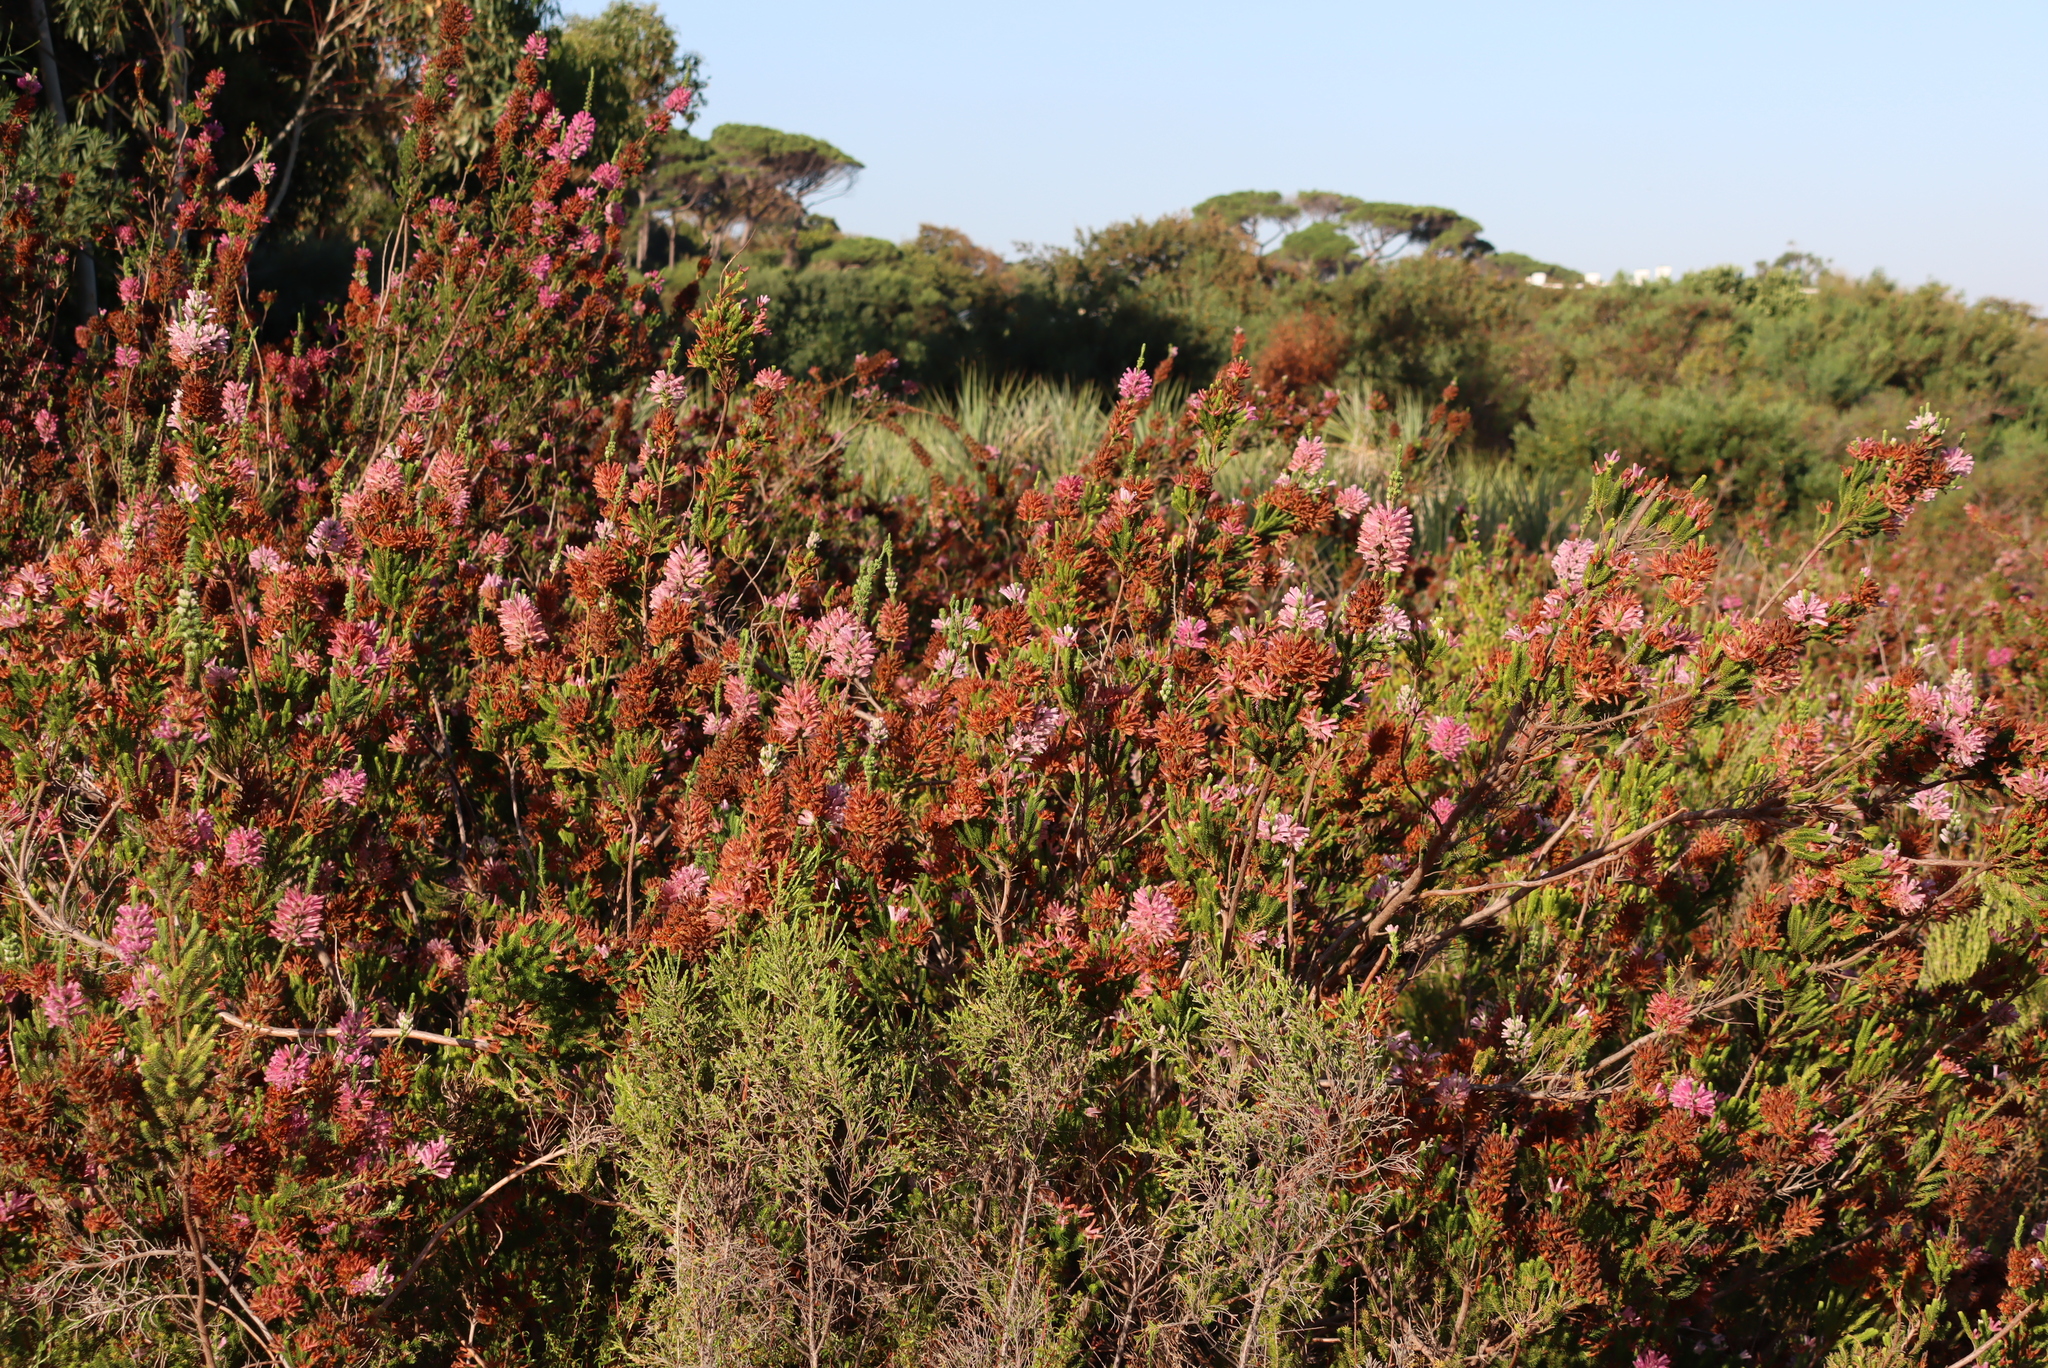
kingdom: Plantae
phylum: Tracheophyta
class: Magnoliopsida
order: Ericales
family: Ericaceae
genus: Erica
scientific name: Erica verticillata
